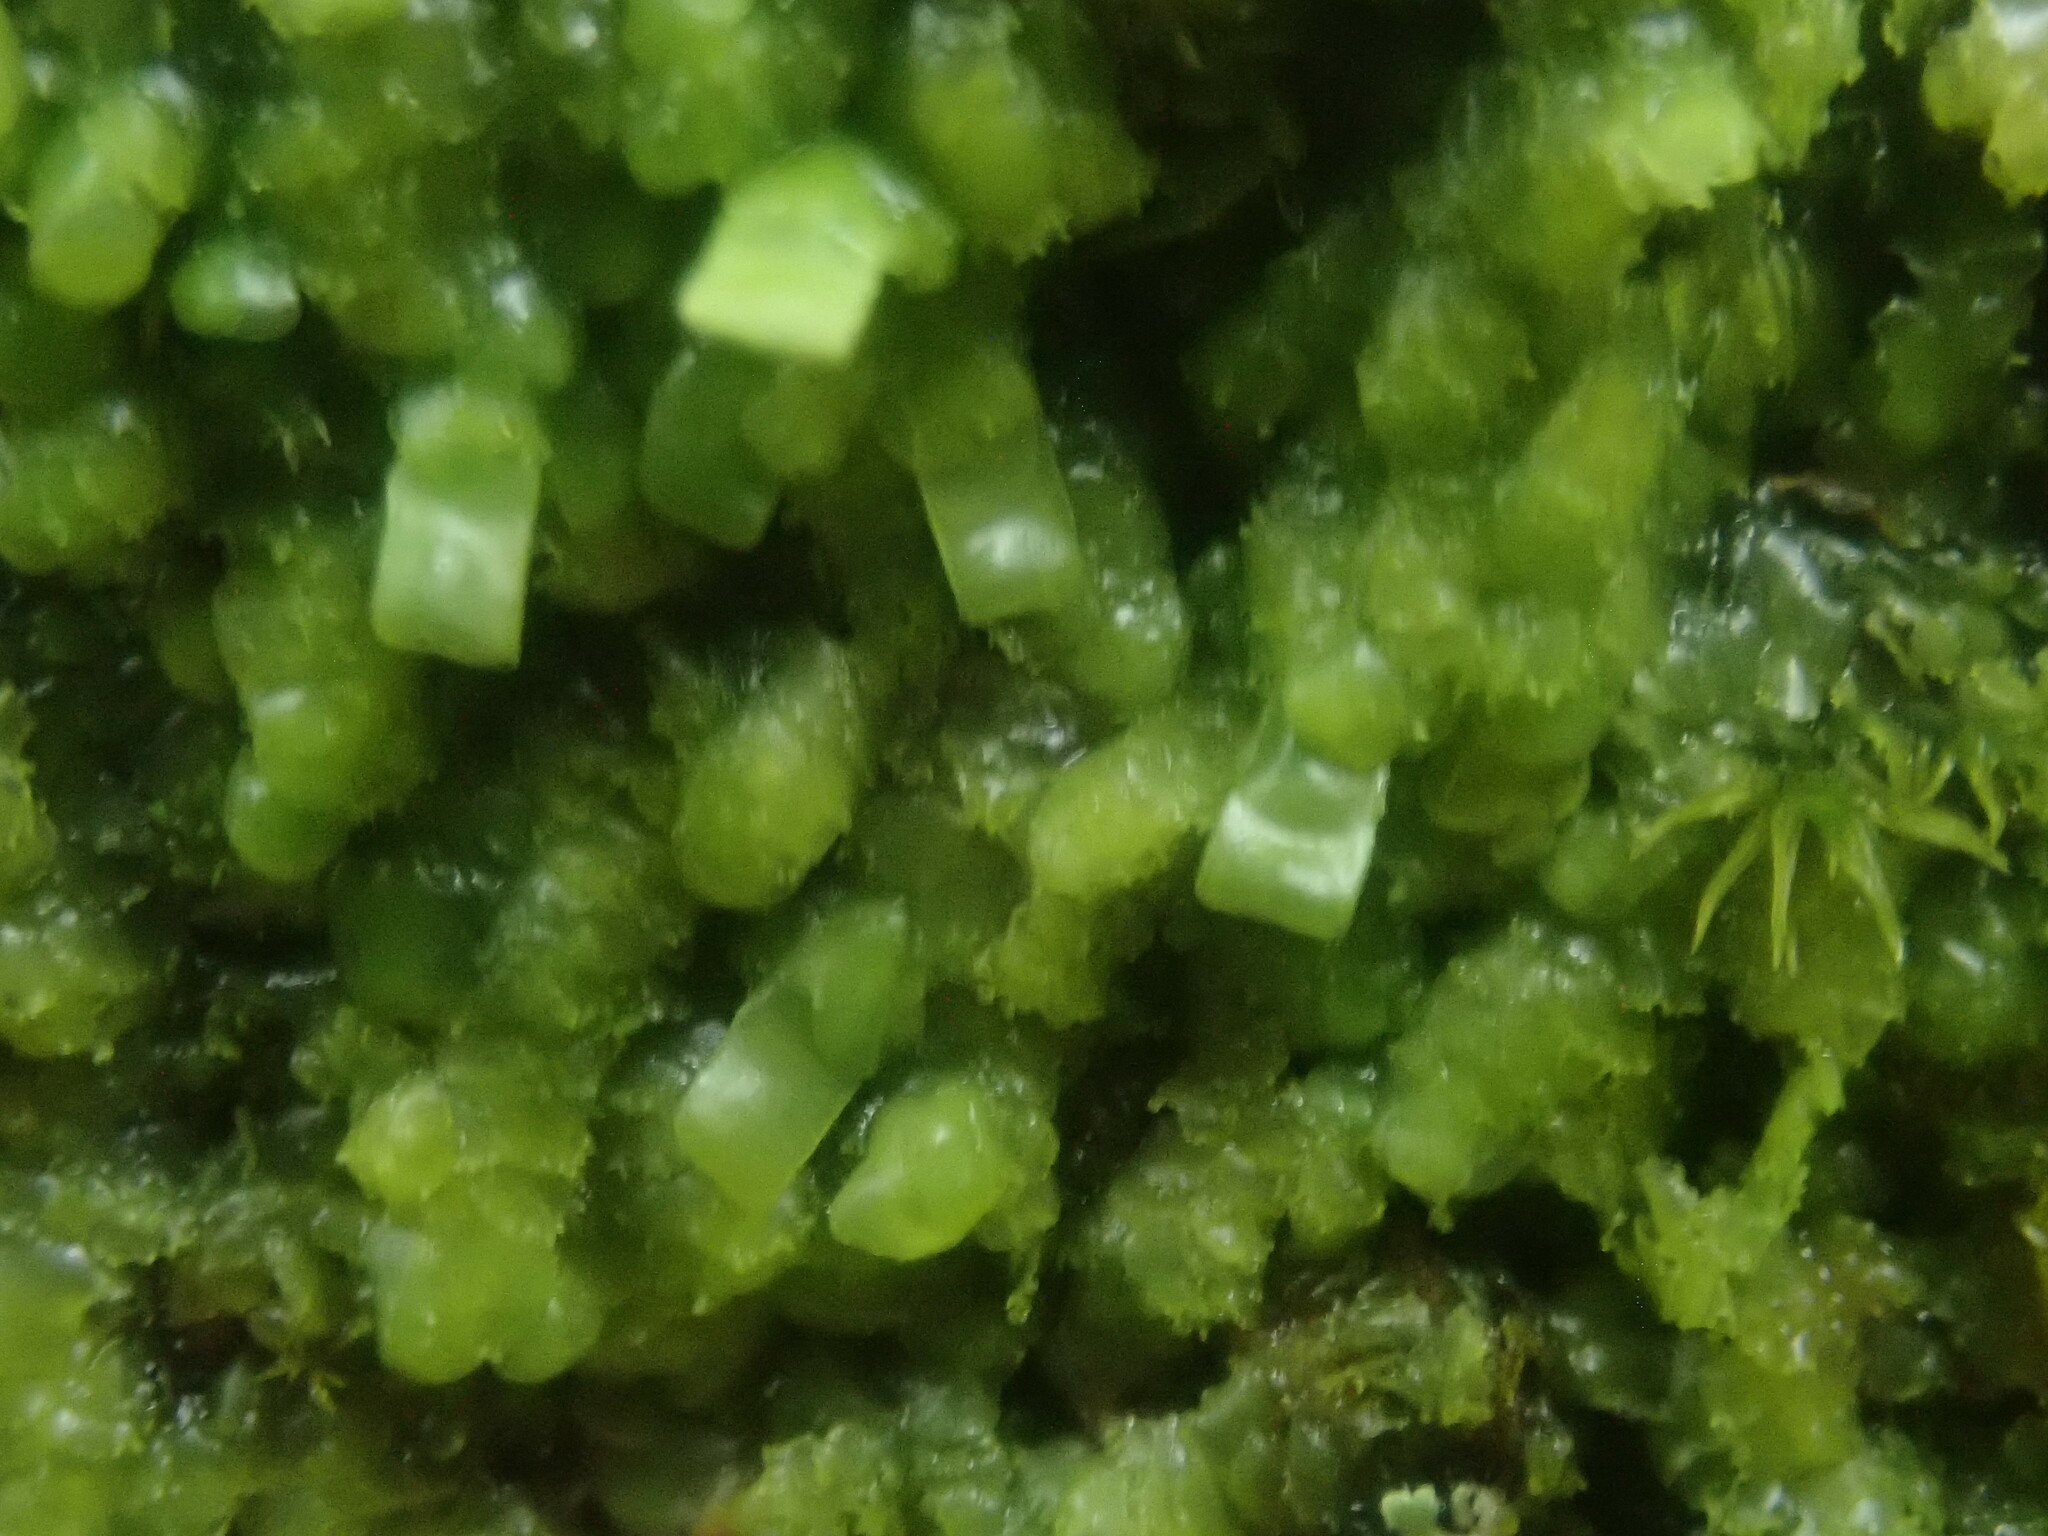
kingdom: Plantae
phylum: Marchantiophyta
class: Jungermanniopsida
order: Porellales
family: Radulaceae
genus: Radula
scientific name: Radula complanata
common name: Flat-leaved scalewort
